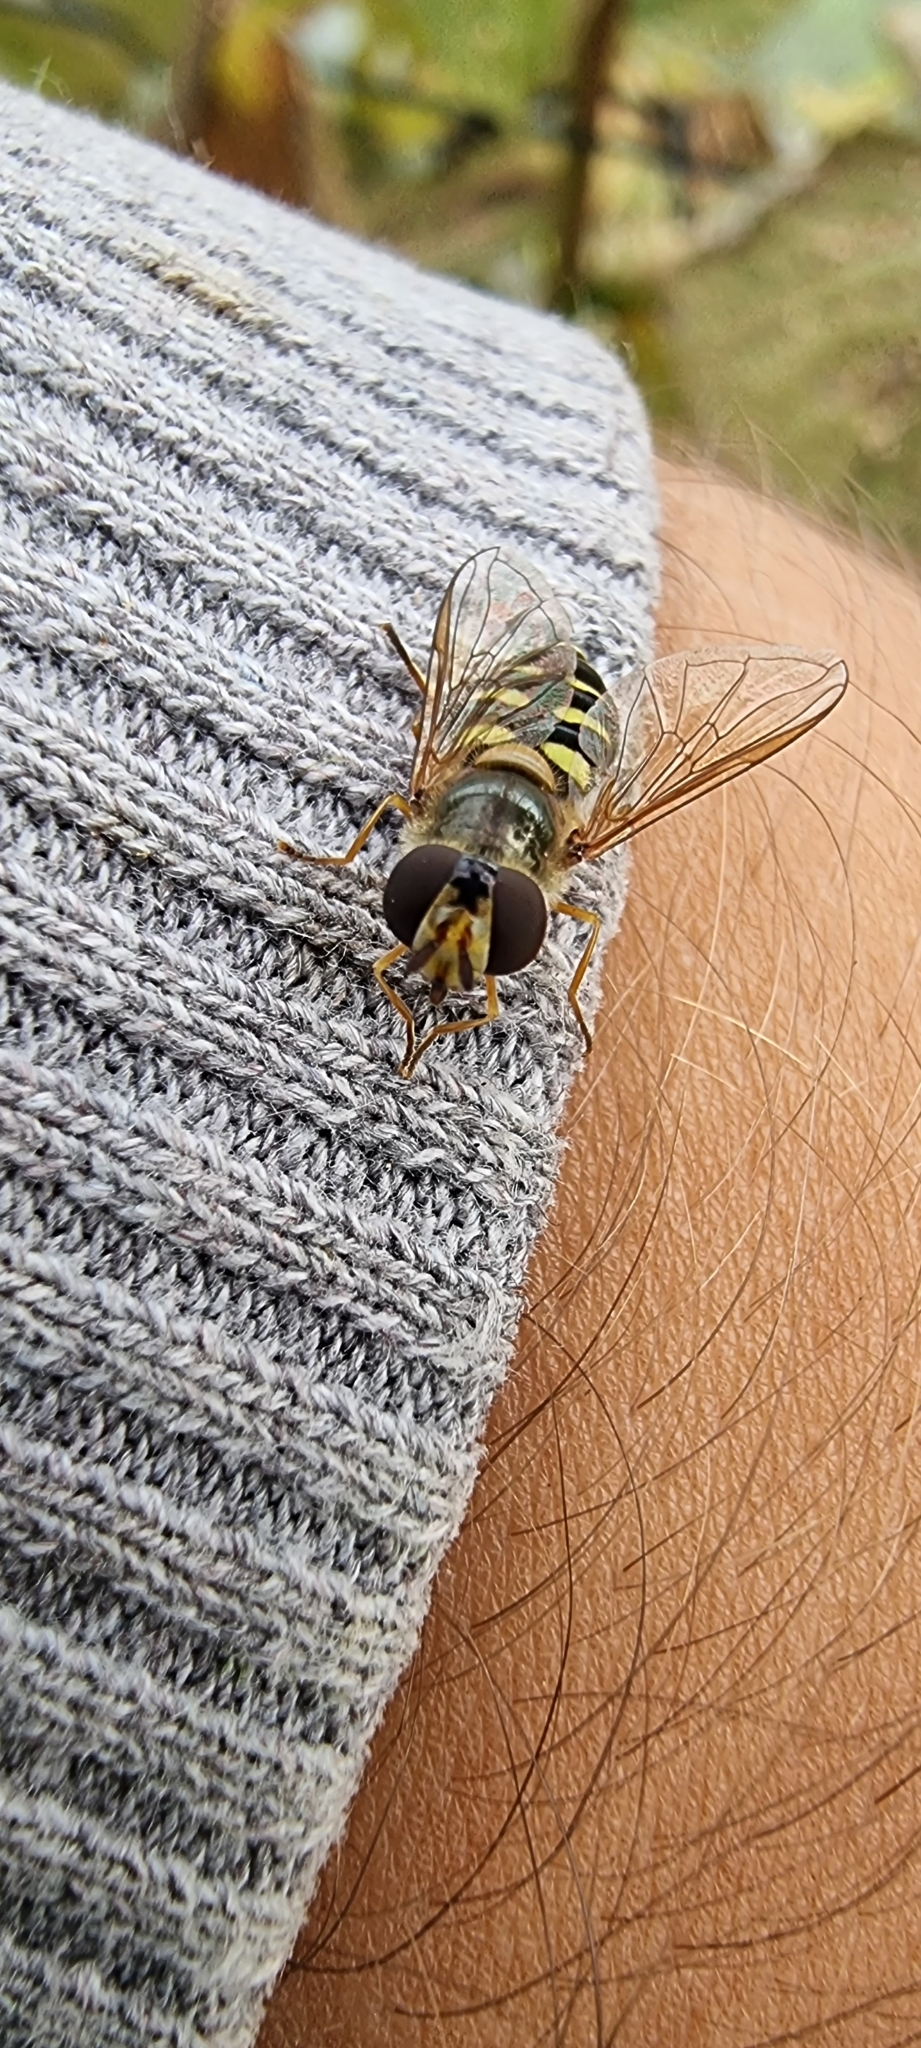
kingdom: Animalia
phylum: Arthropoda
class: Insecta
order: Diptera
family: Syrphidae
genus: Eupeodes
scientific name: Eupeodes luniger
